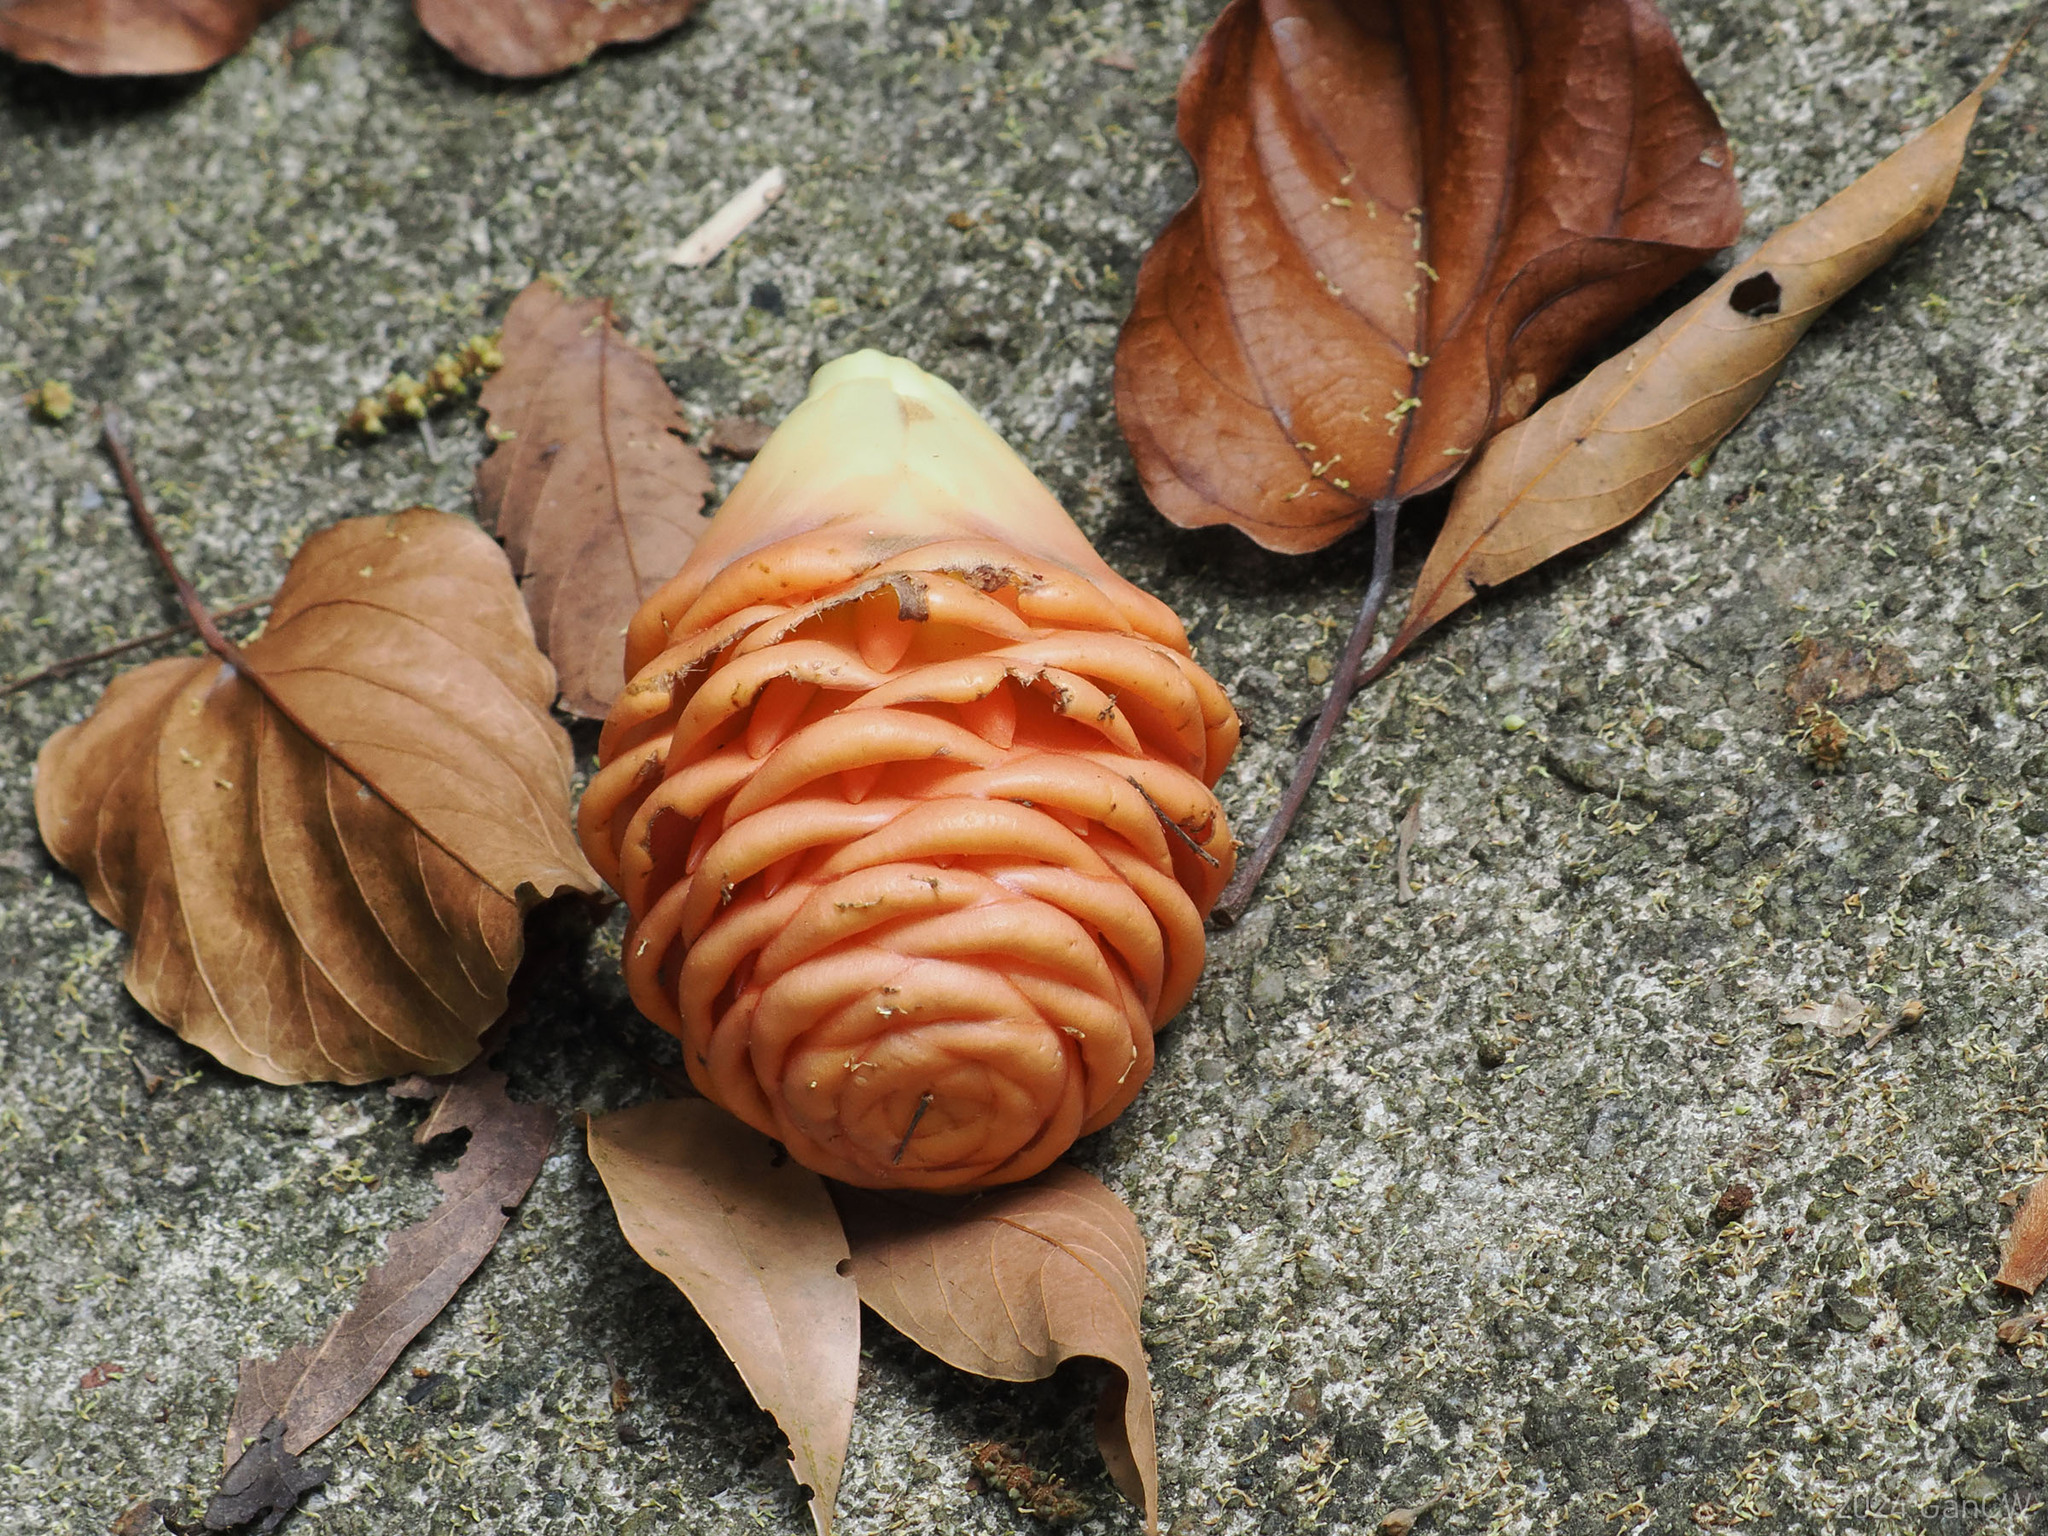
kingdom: Plantae
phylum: Tracheophyta
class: Liliopsida
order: Zingiberales
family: Zingiberaceae
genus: Zingiber
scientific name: Zingiber spectabile
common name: Beehive ginger
